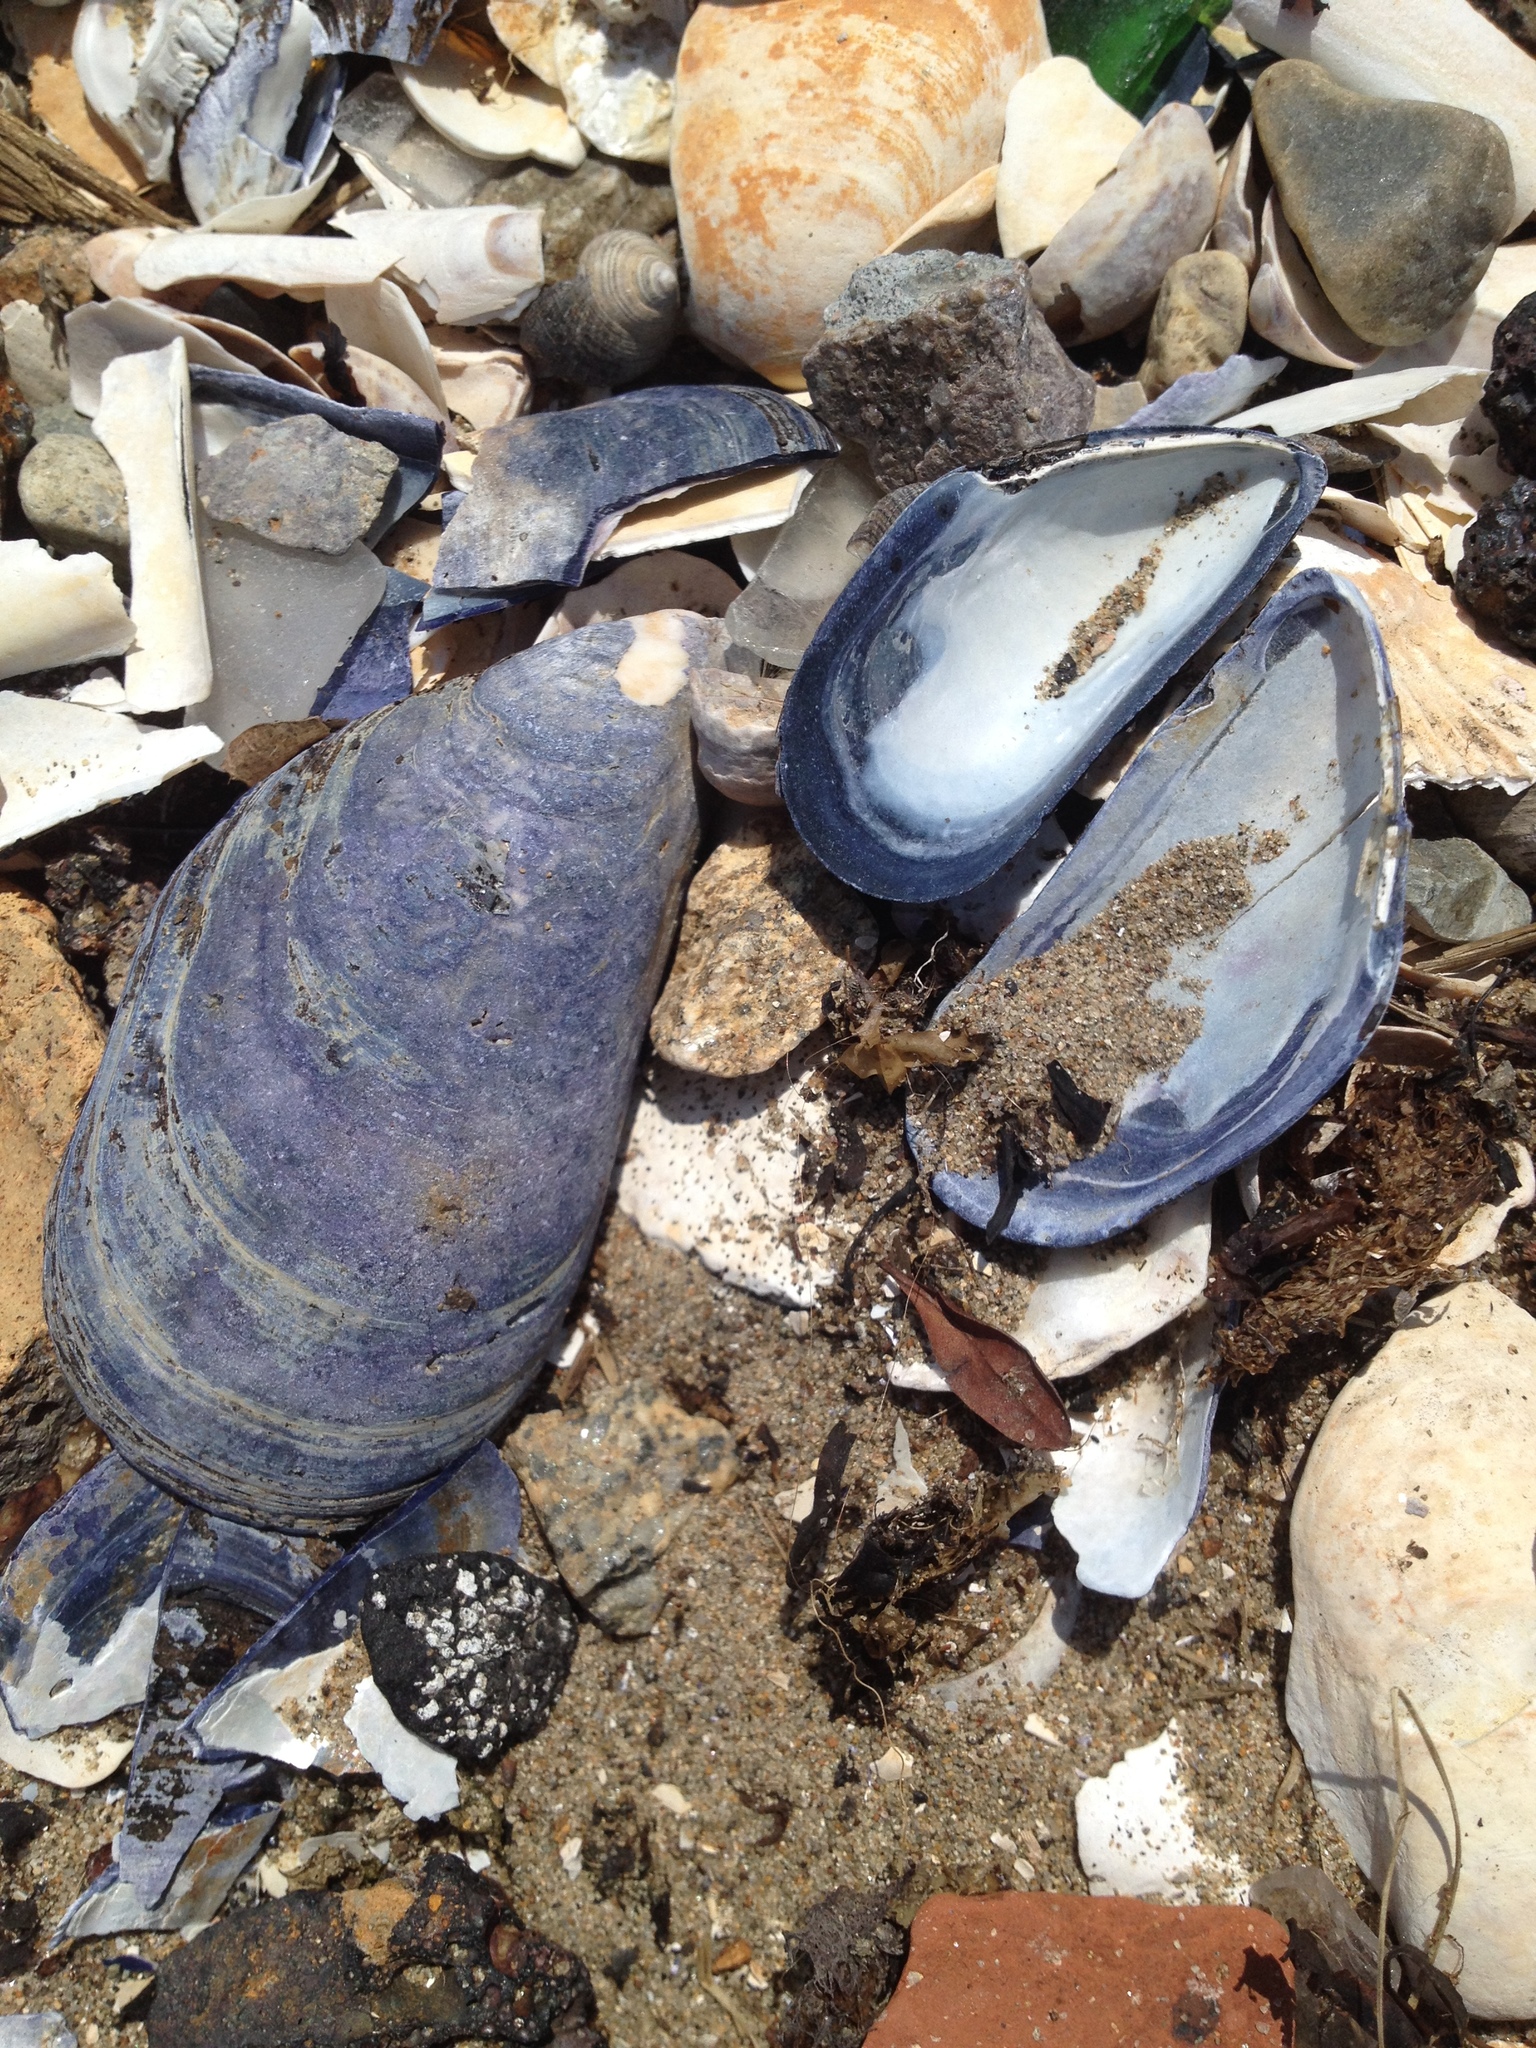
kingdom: Animalia
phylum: Mollusca
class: Bivalvia
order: Mytilida
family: Mytilidae
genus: Mytilus
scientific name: Mytilus edulis
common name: Blue mussel
